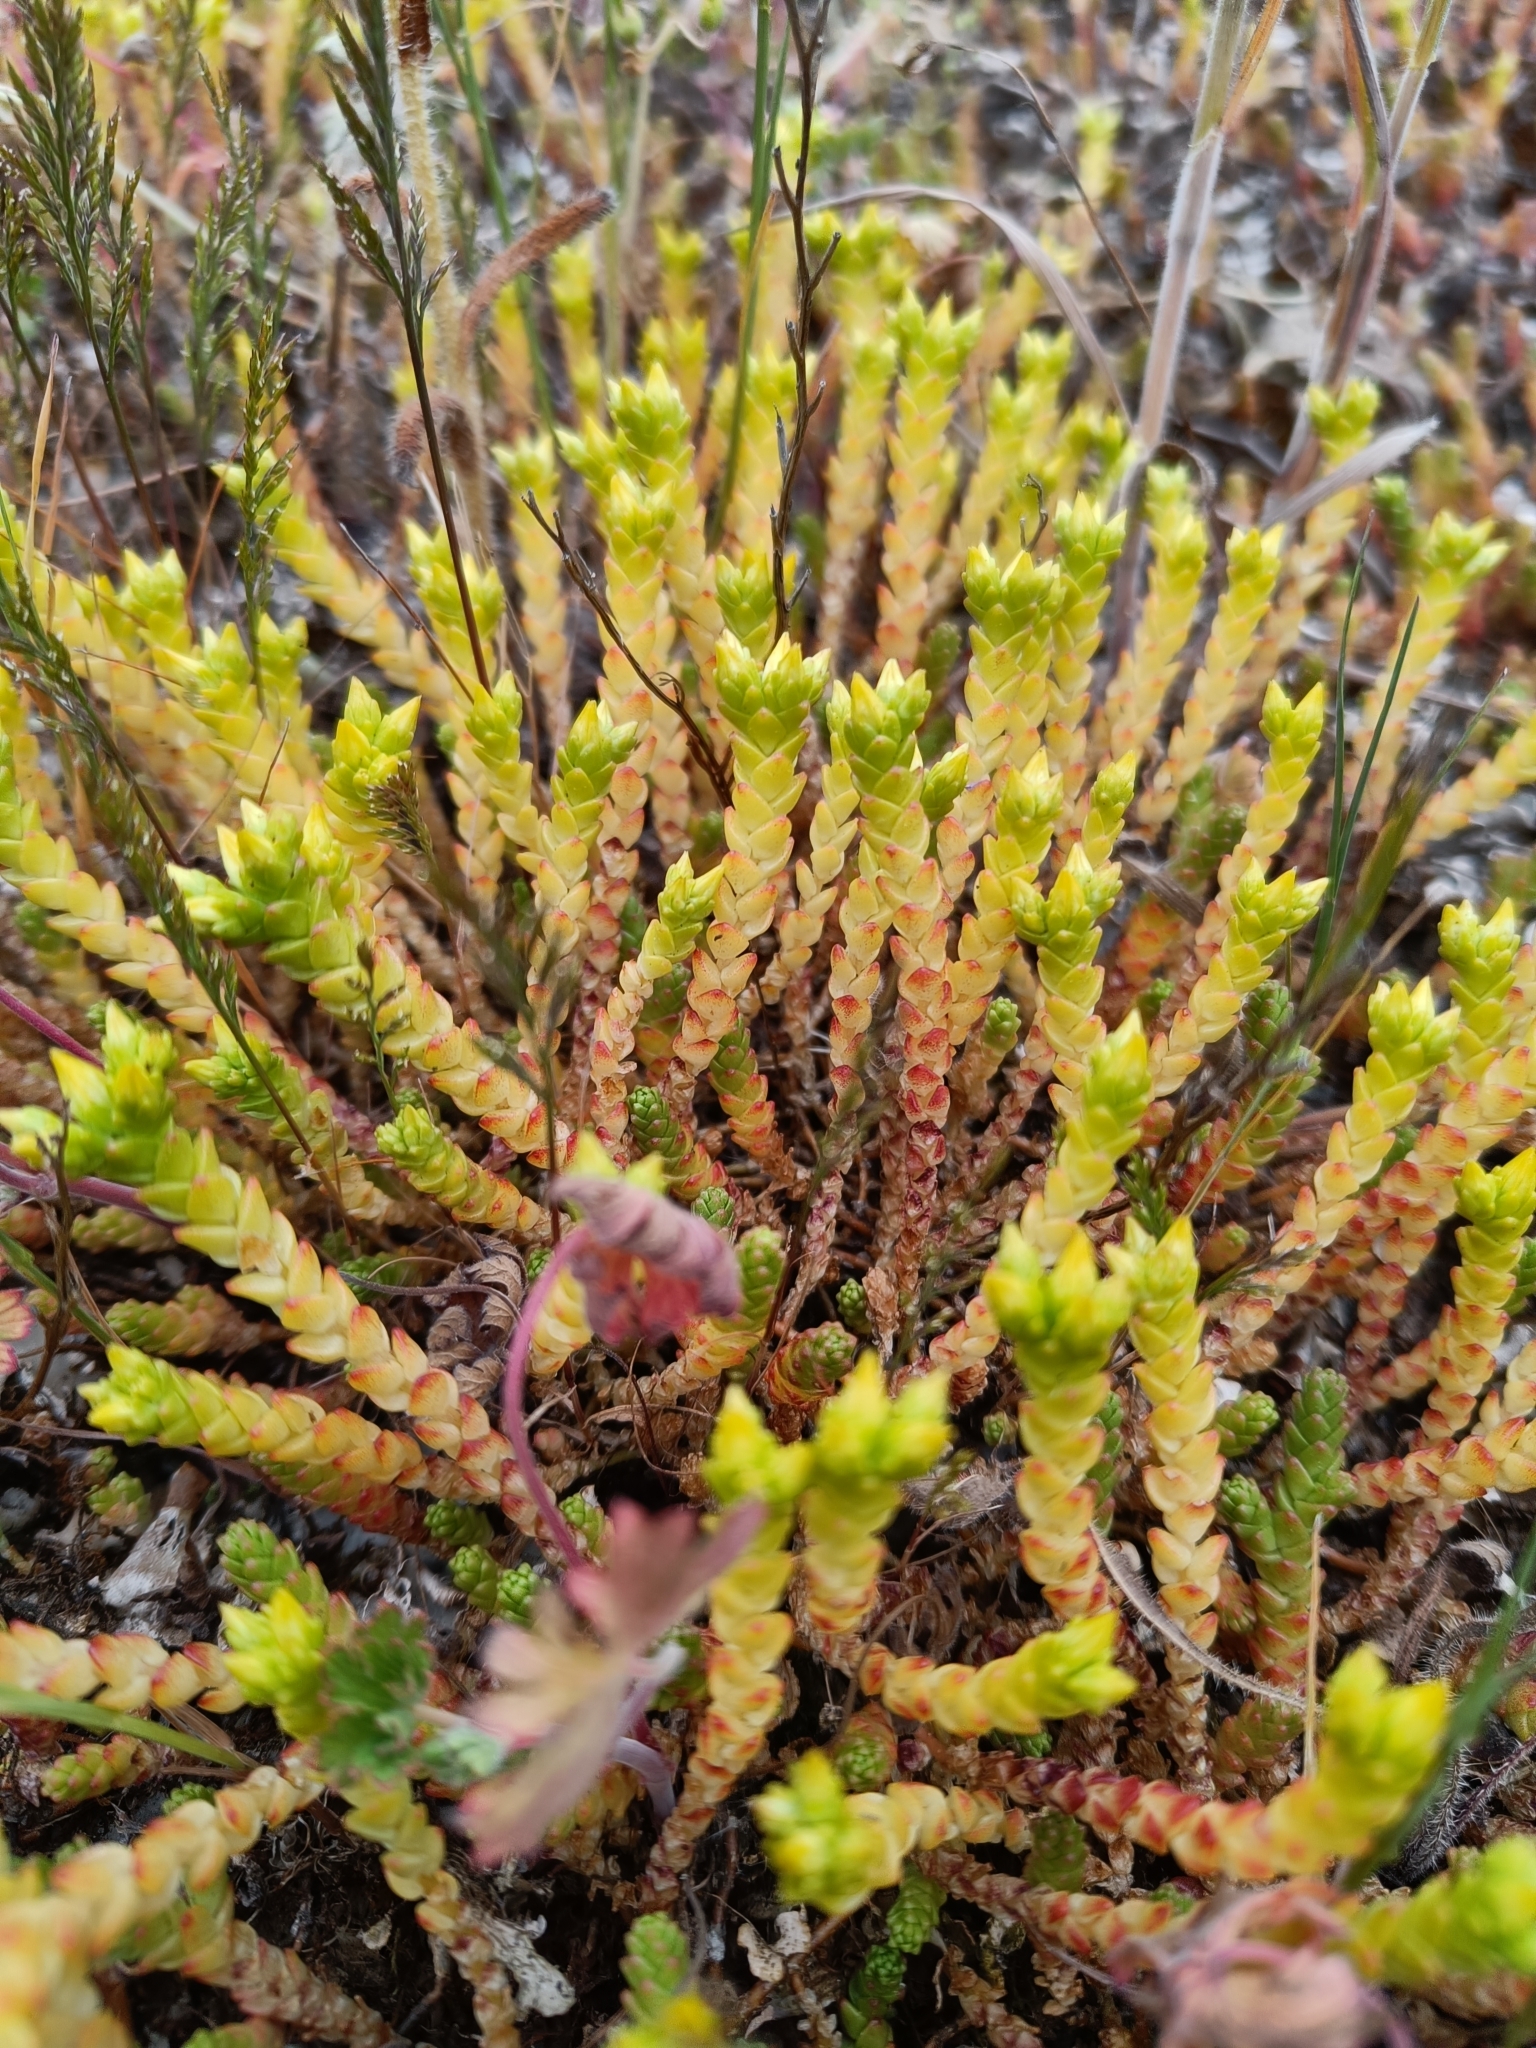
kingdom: Plantae
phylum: Tracheophyta
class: Magnoliopsida
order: Saxifragales
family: Crassulaceae
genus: Sedum
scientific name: Sedum acre
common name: Biting stonecrop
